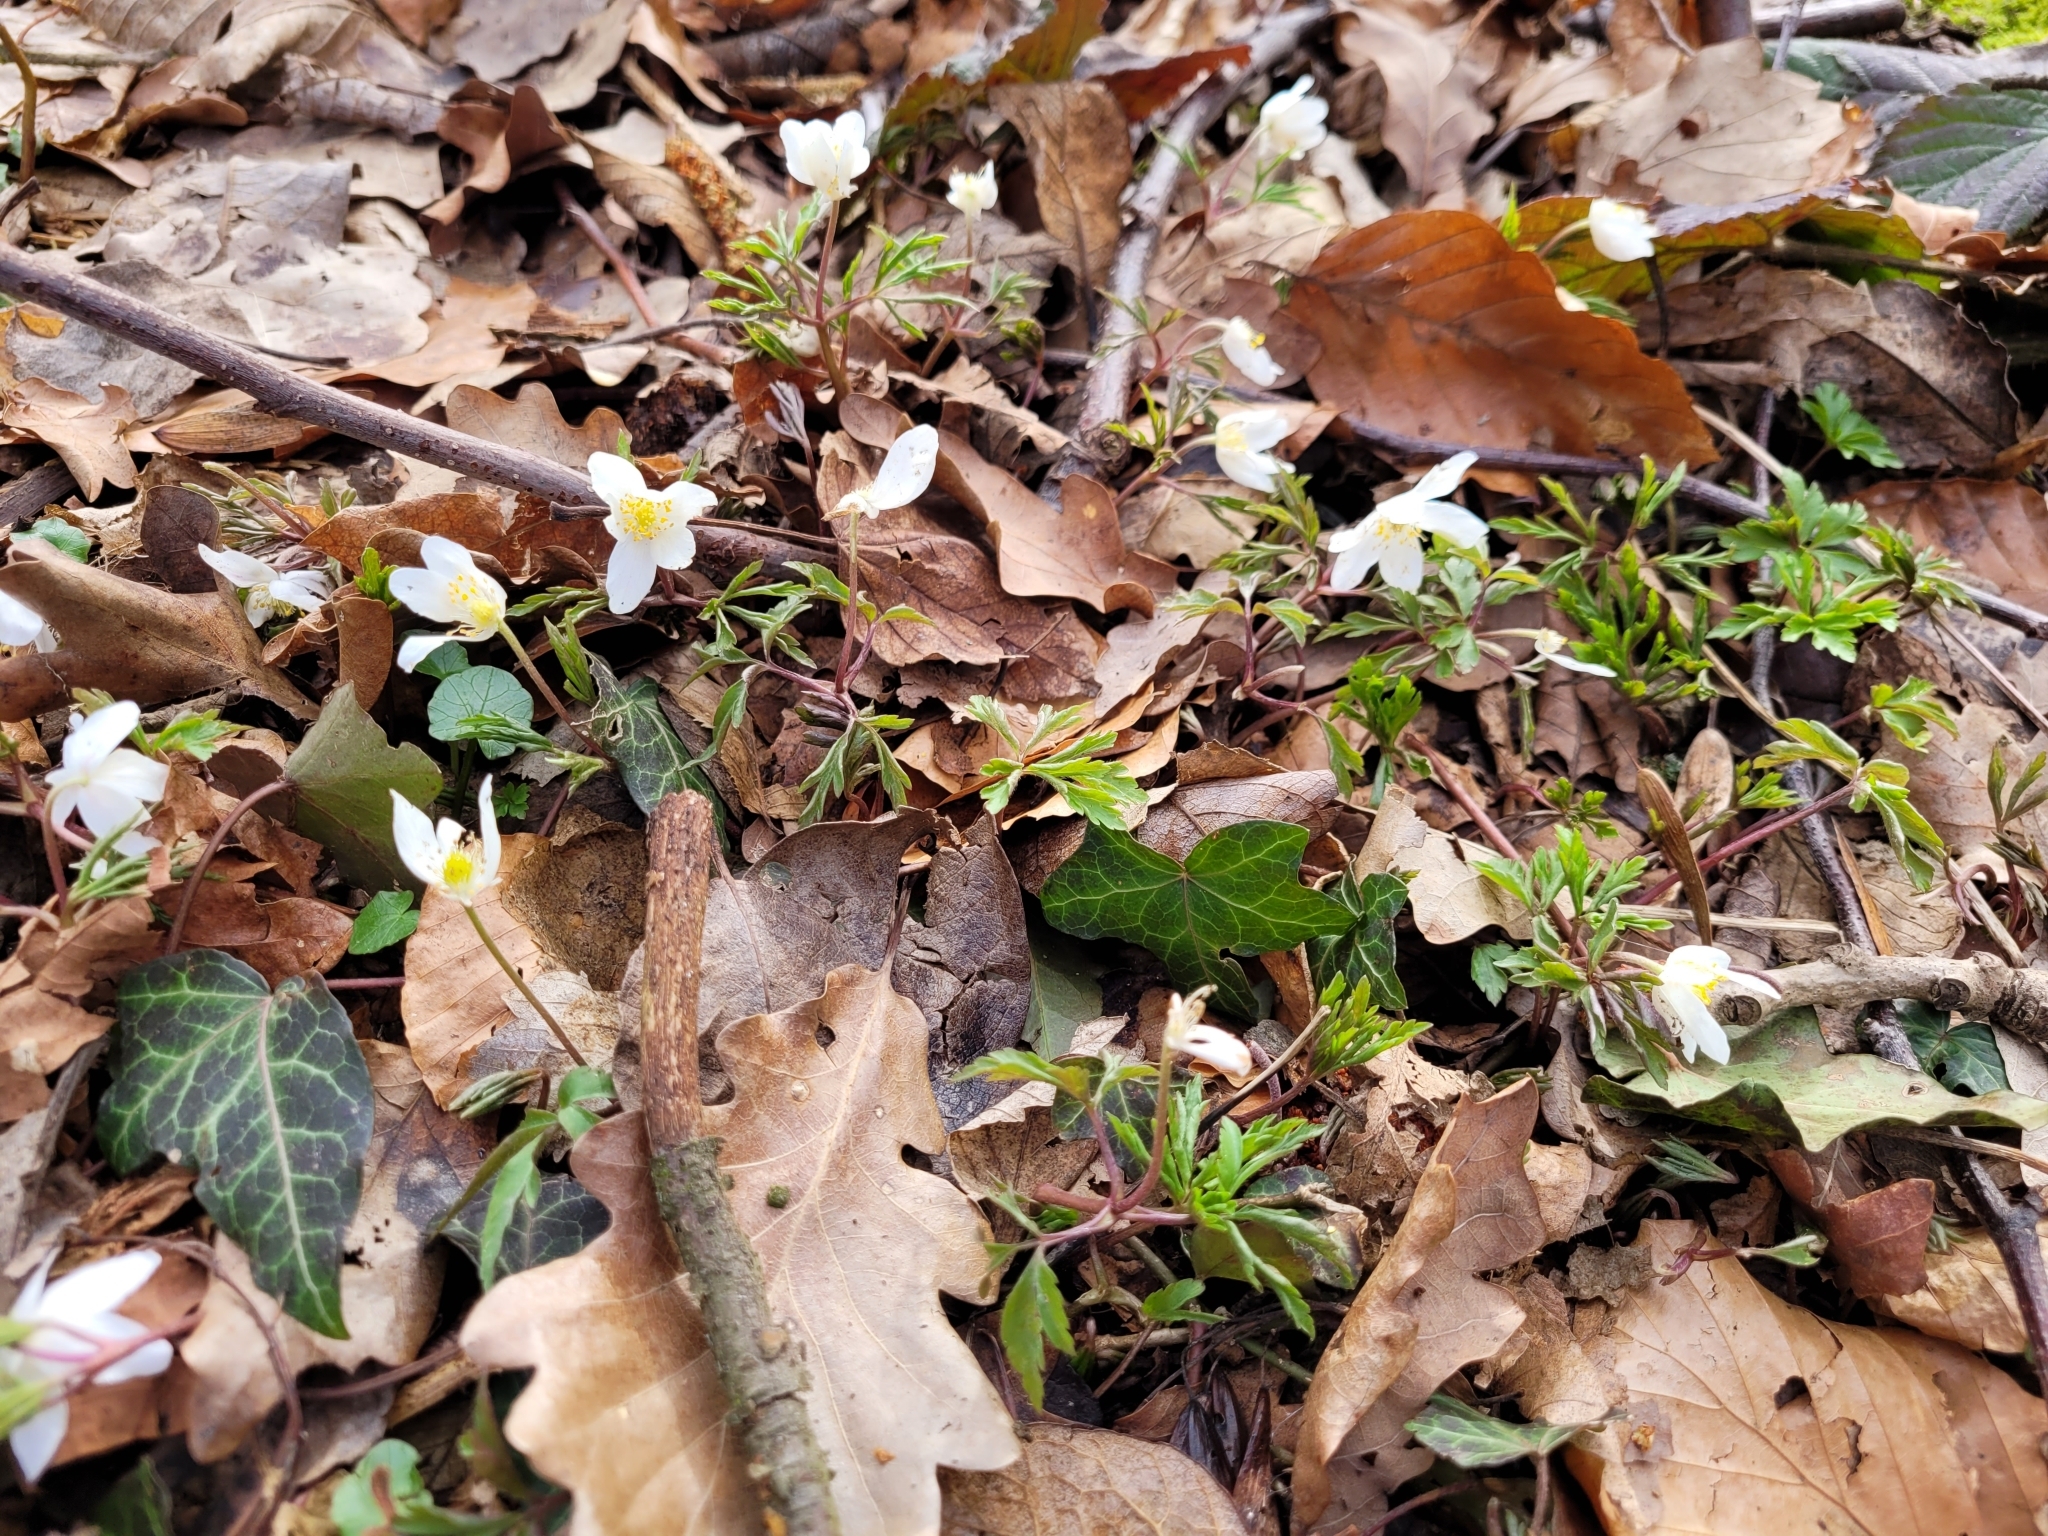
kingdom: Plantae
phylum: Tracheophyta
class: Magnoliopsida
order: Ranunculales
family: Ranunculaceae
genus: Anemone
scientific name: Anemone nemorosa
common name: Wood anemone
